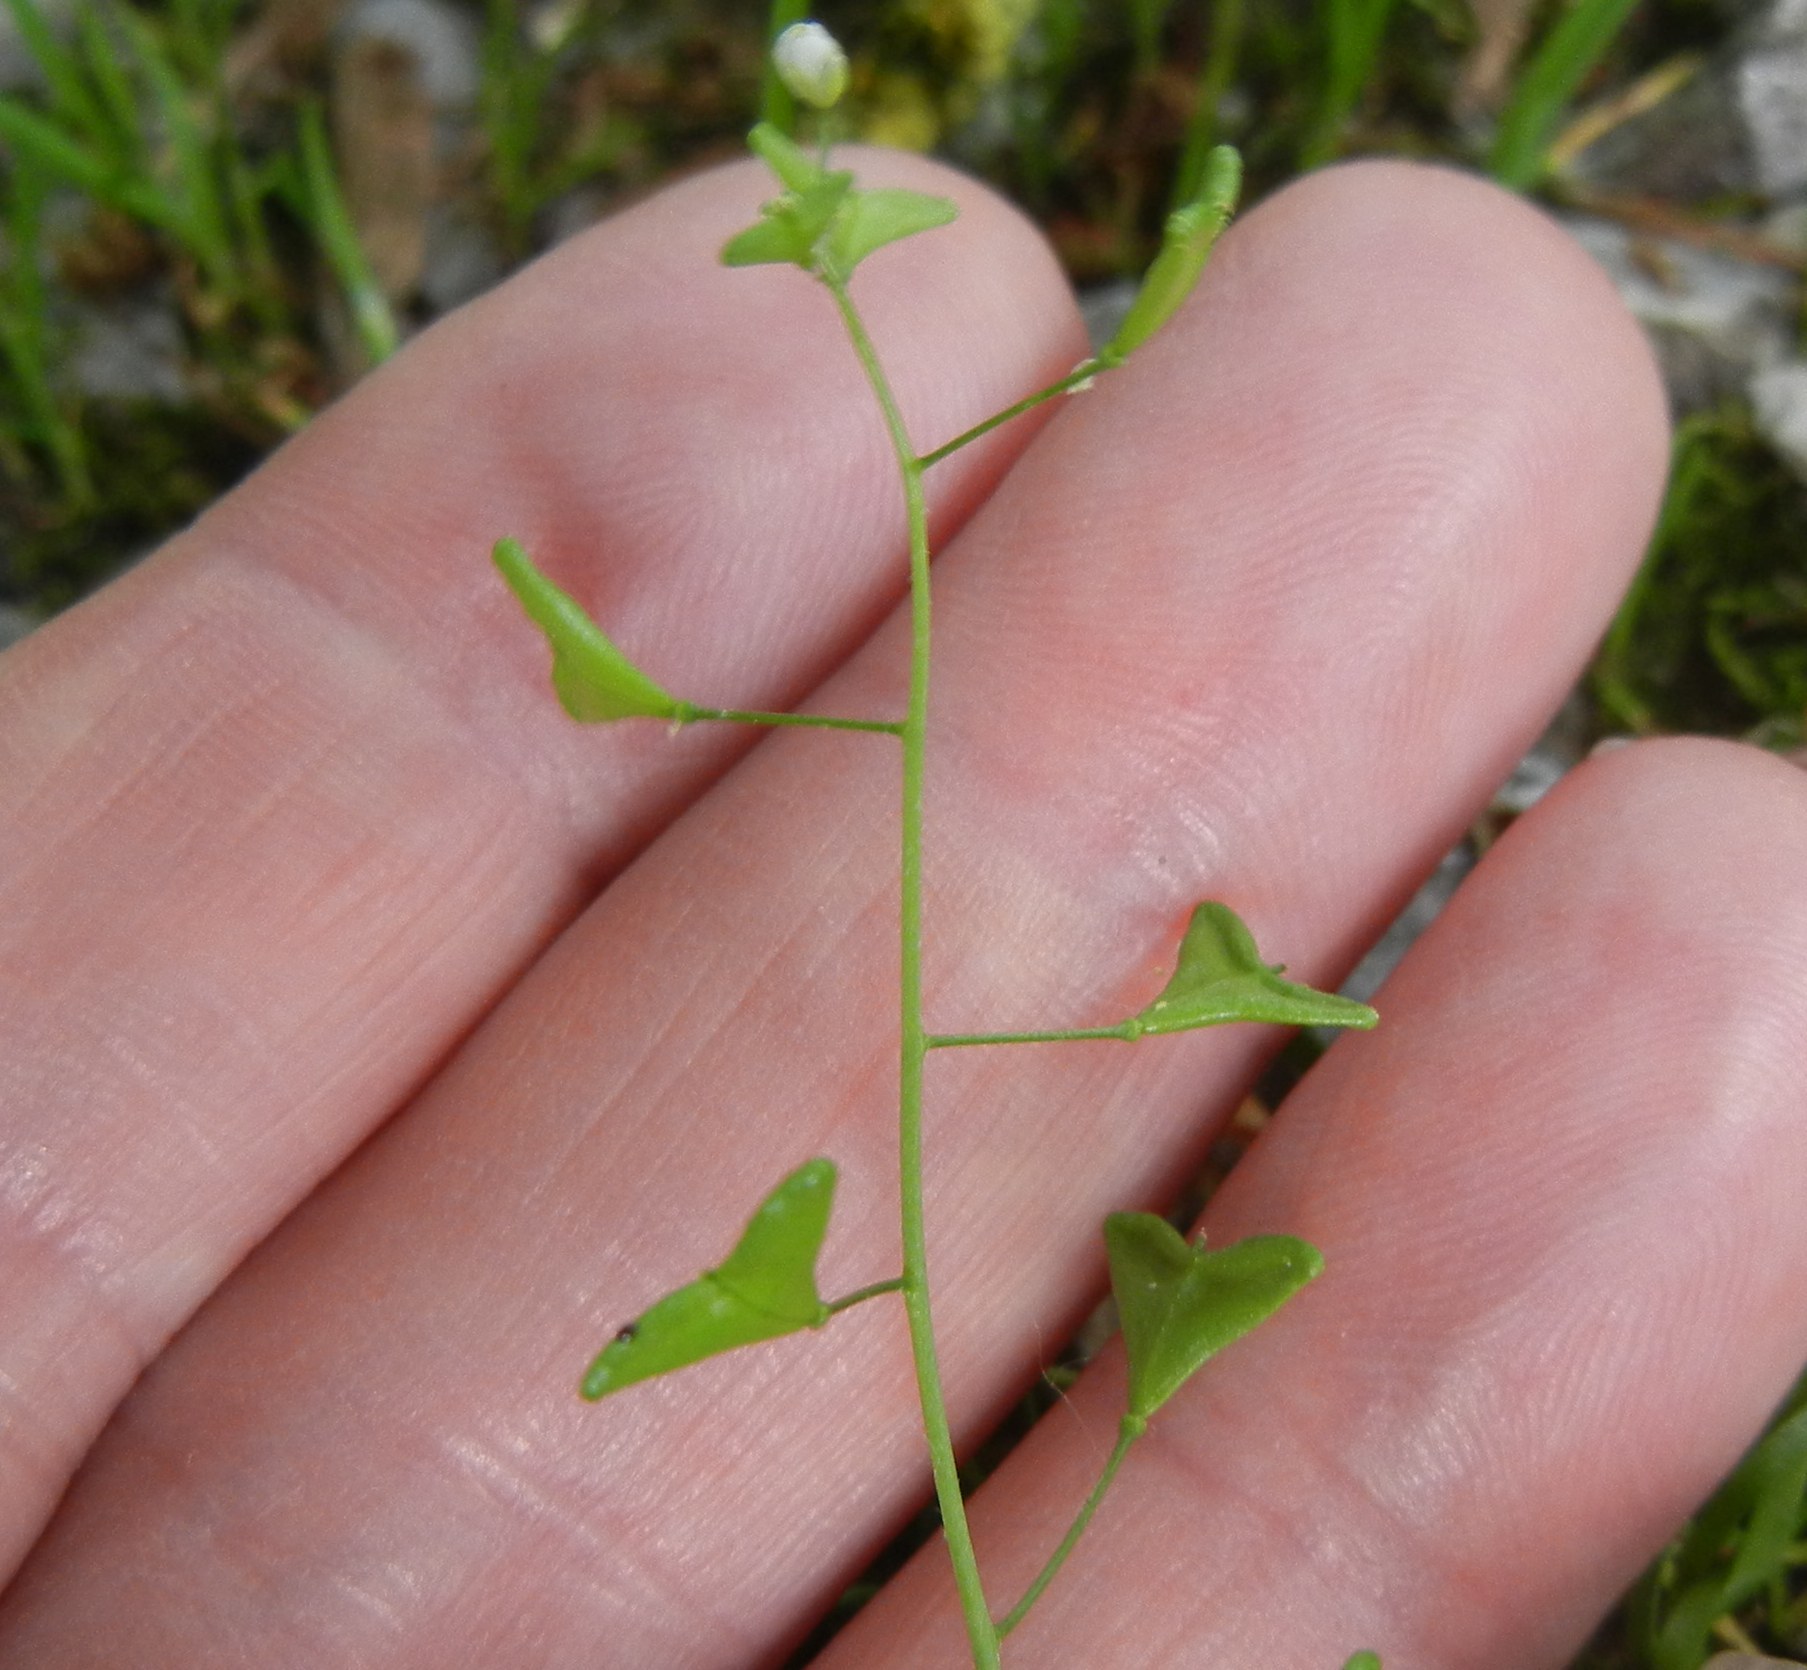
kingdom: Plantae
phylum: Tracheophyta
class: Magnoliopsida
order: Brassicales
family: Brassicaceae
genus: Capsella
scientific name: Capsella bursa-pastoris
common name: Shepherd's purse
